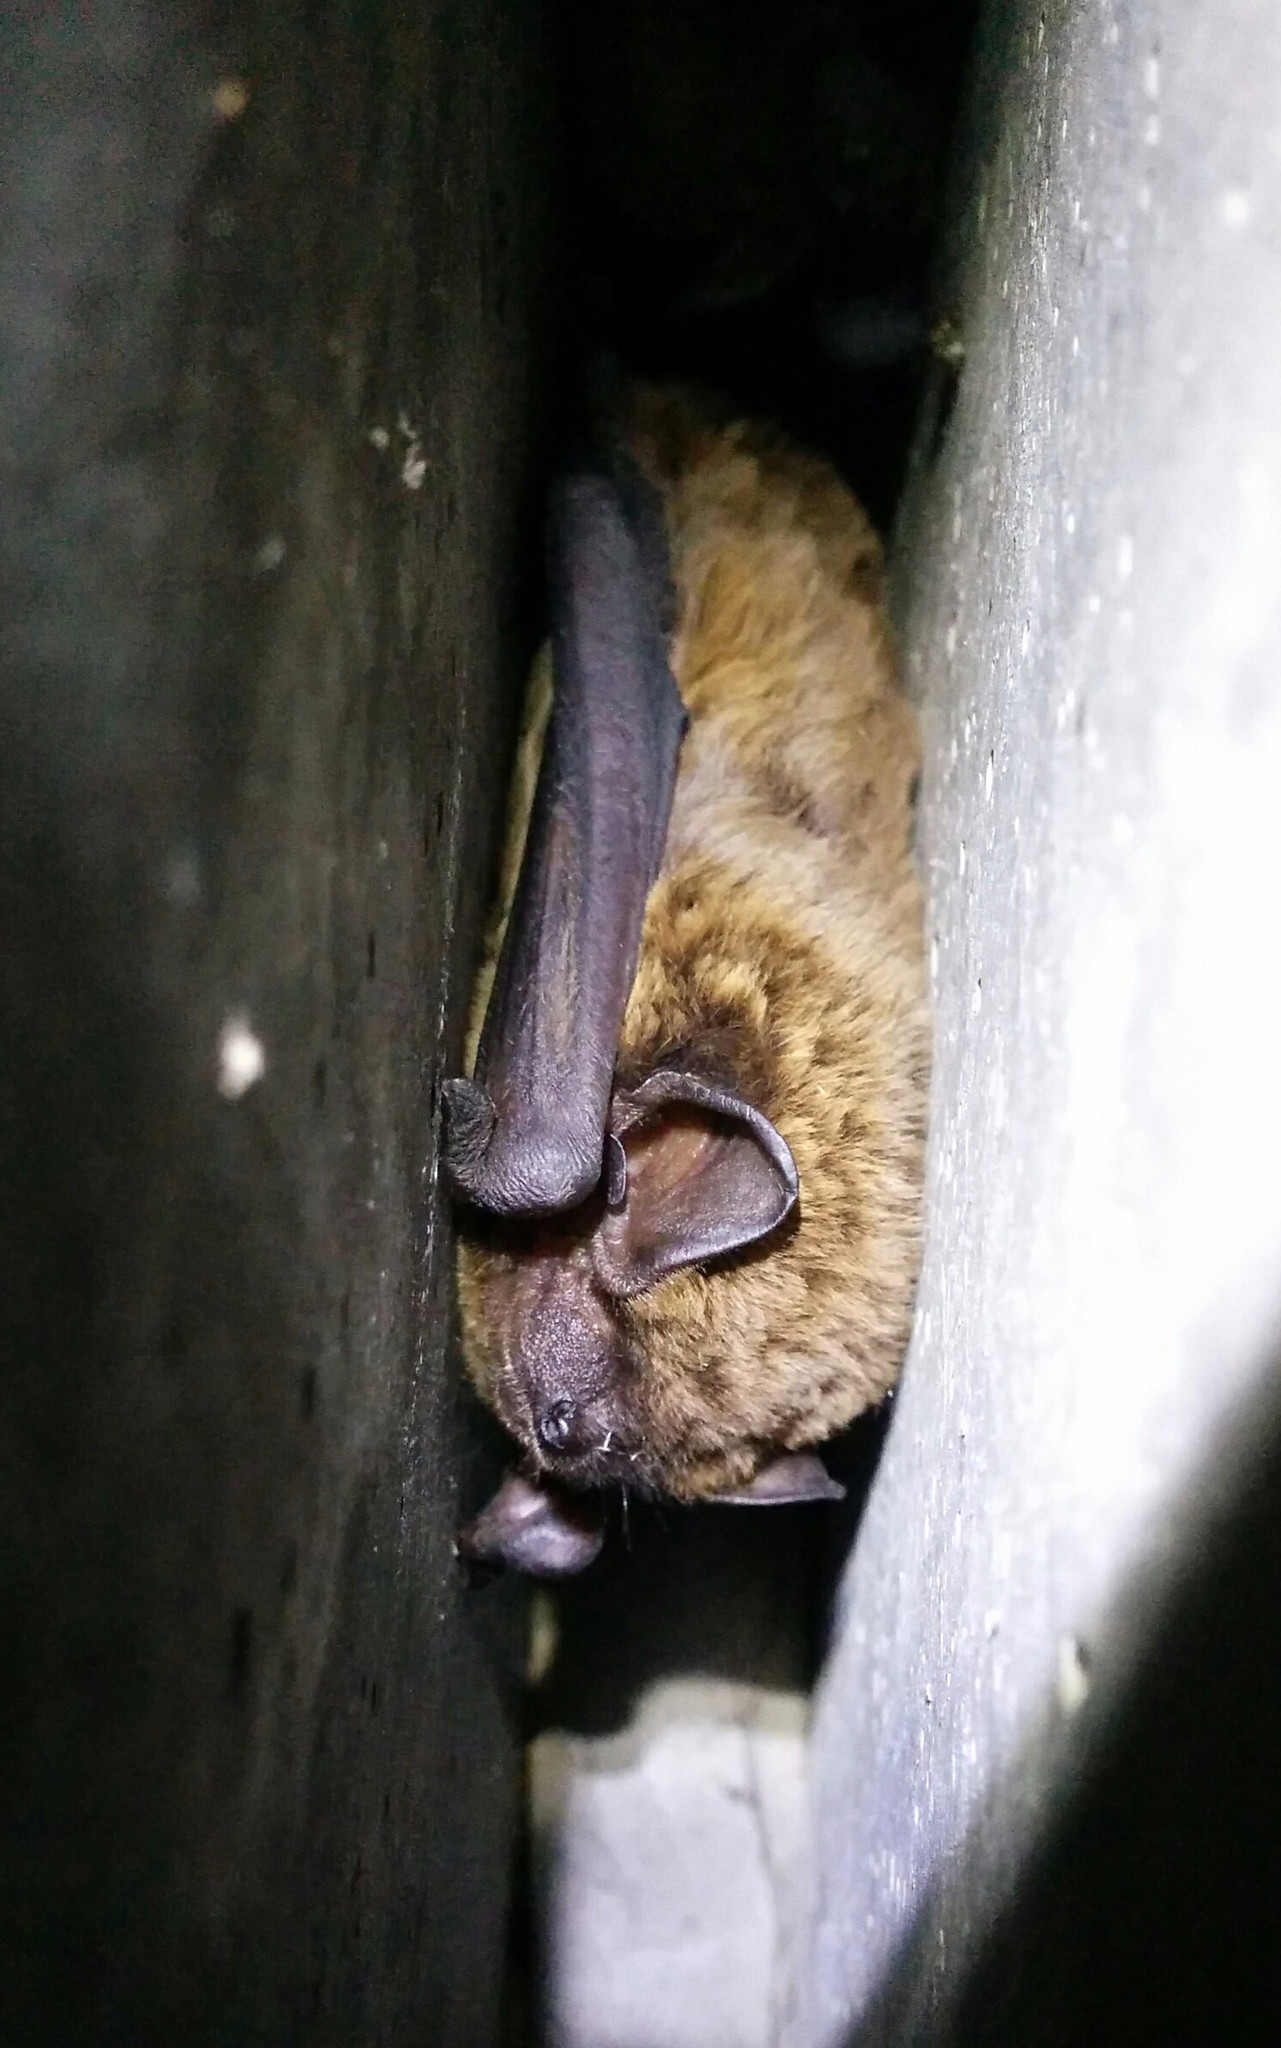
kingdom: Animalia
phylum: Chordata
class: Mammalia
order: Chiroptera
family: Vespertilionidae
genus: Nyctalus
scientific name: Nyctalus leisleri
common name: Lesser noctule
